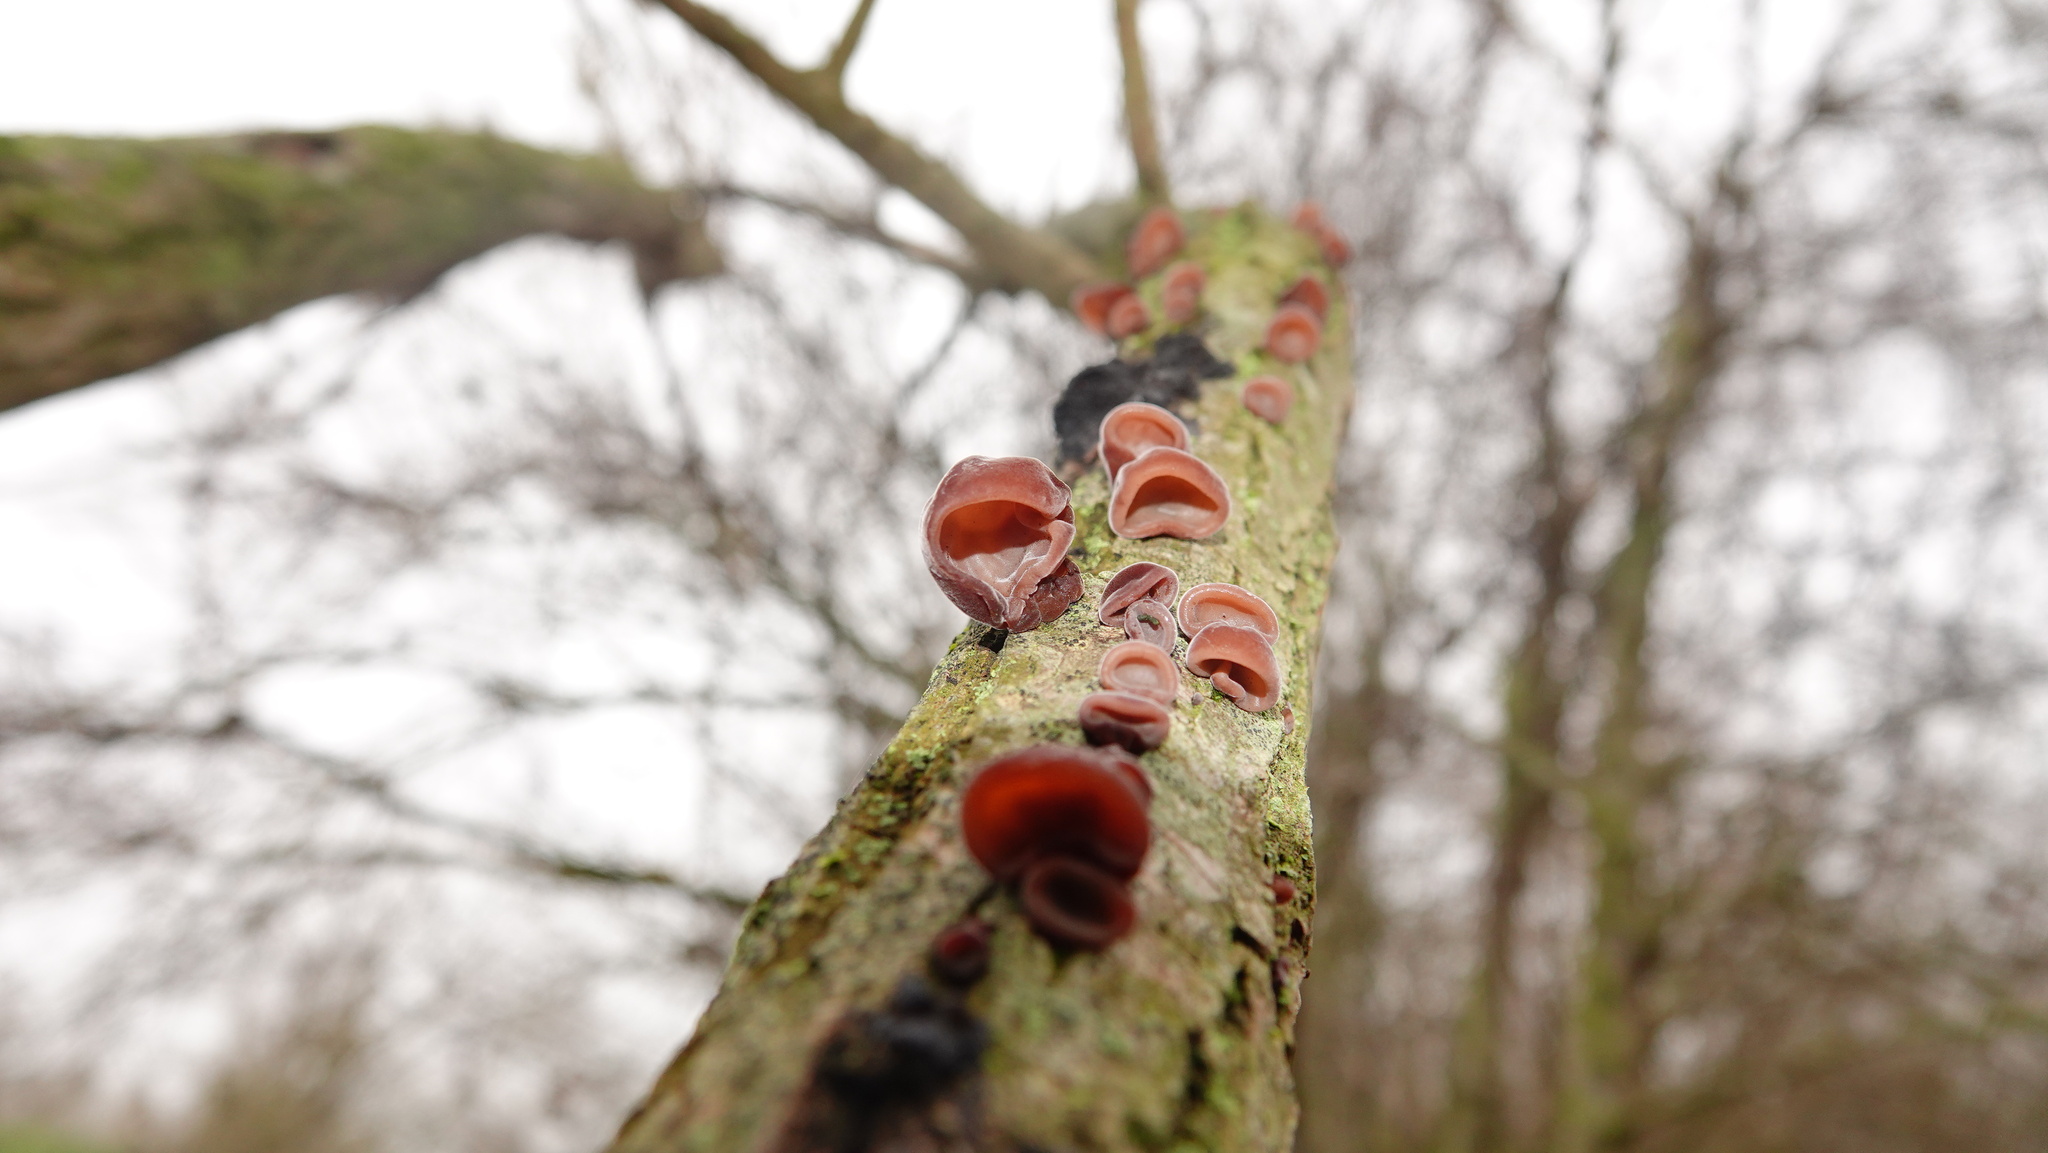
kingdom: Fungi
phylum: Basidiomycota
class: Agaricomycetes
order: Auriculariales
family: Auriculariaceae
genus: Auricularia
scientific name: Auricularia auricula-judae
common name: Jelly ear
